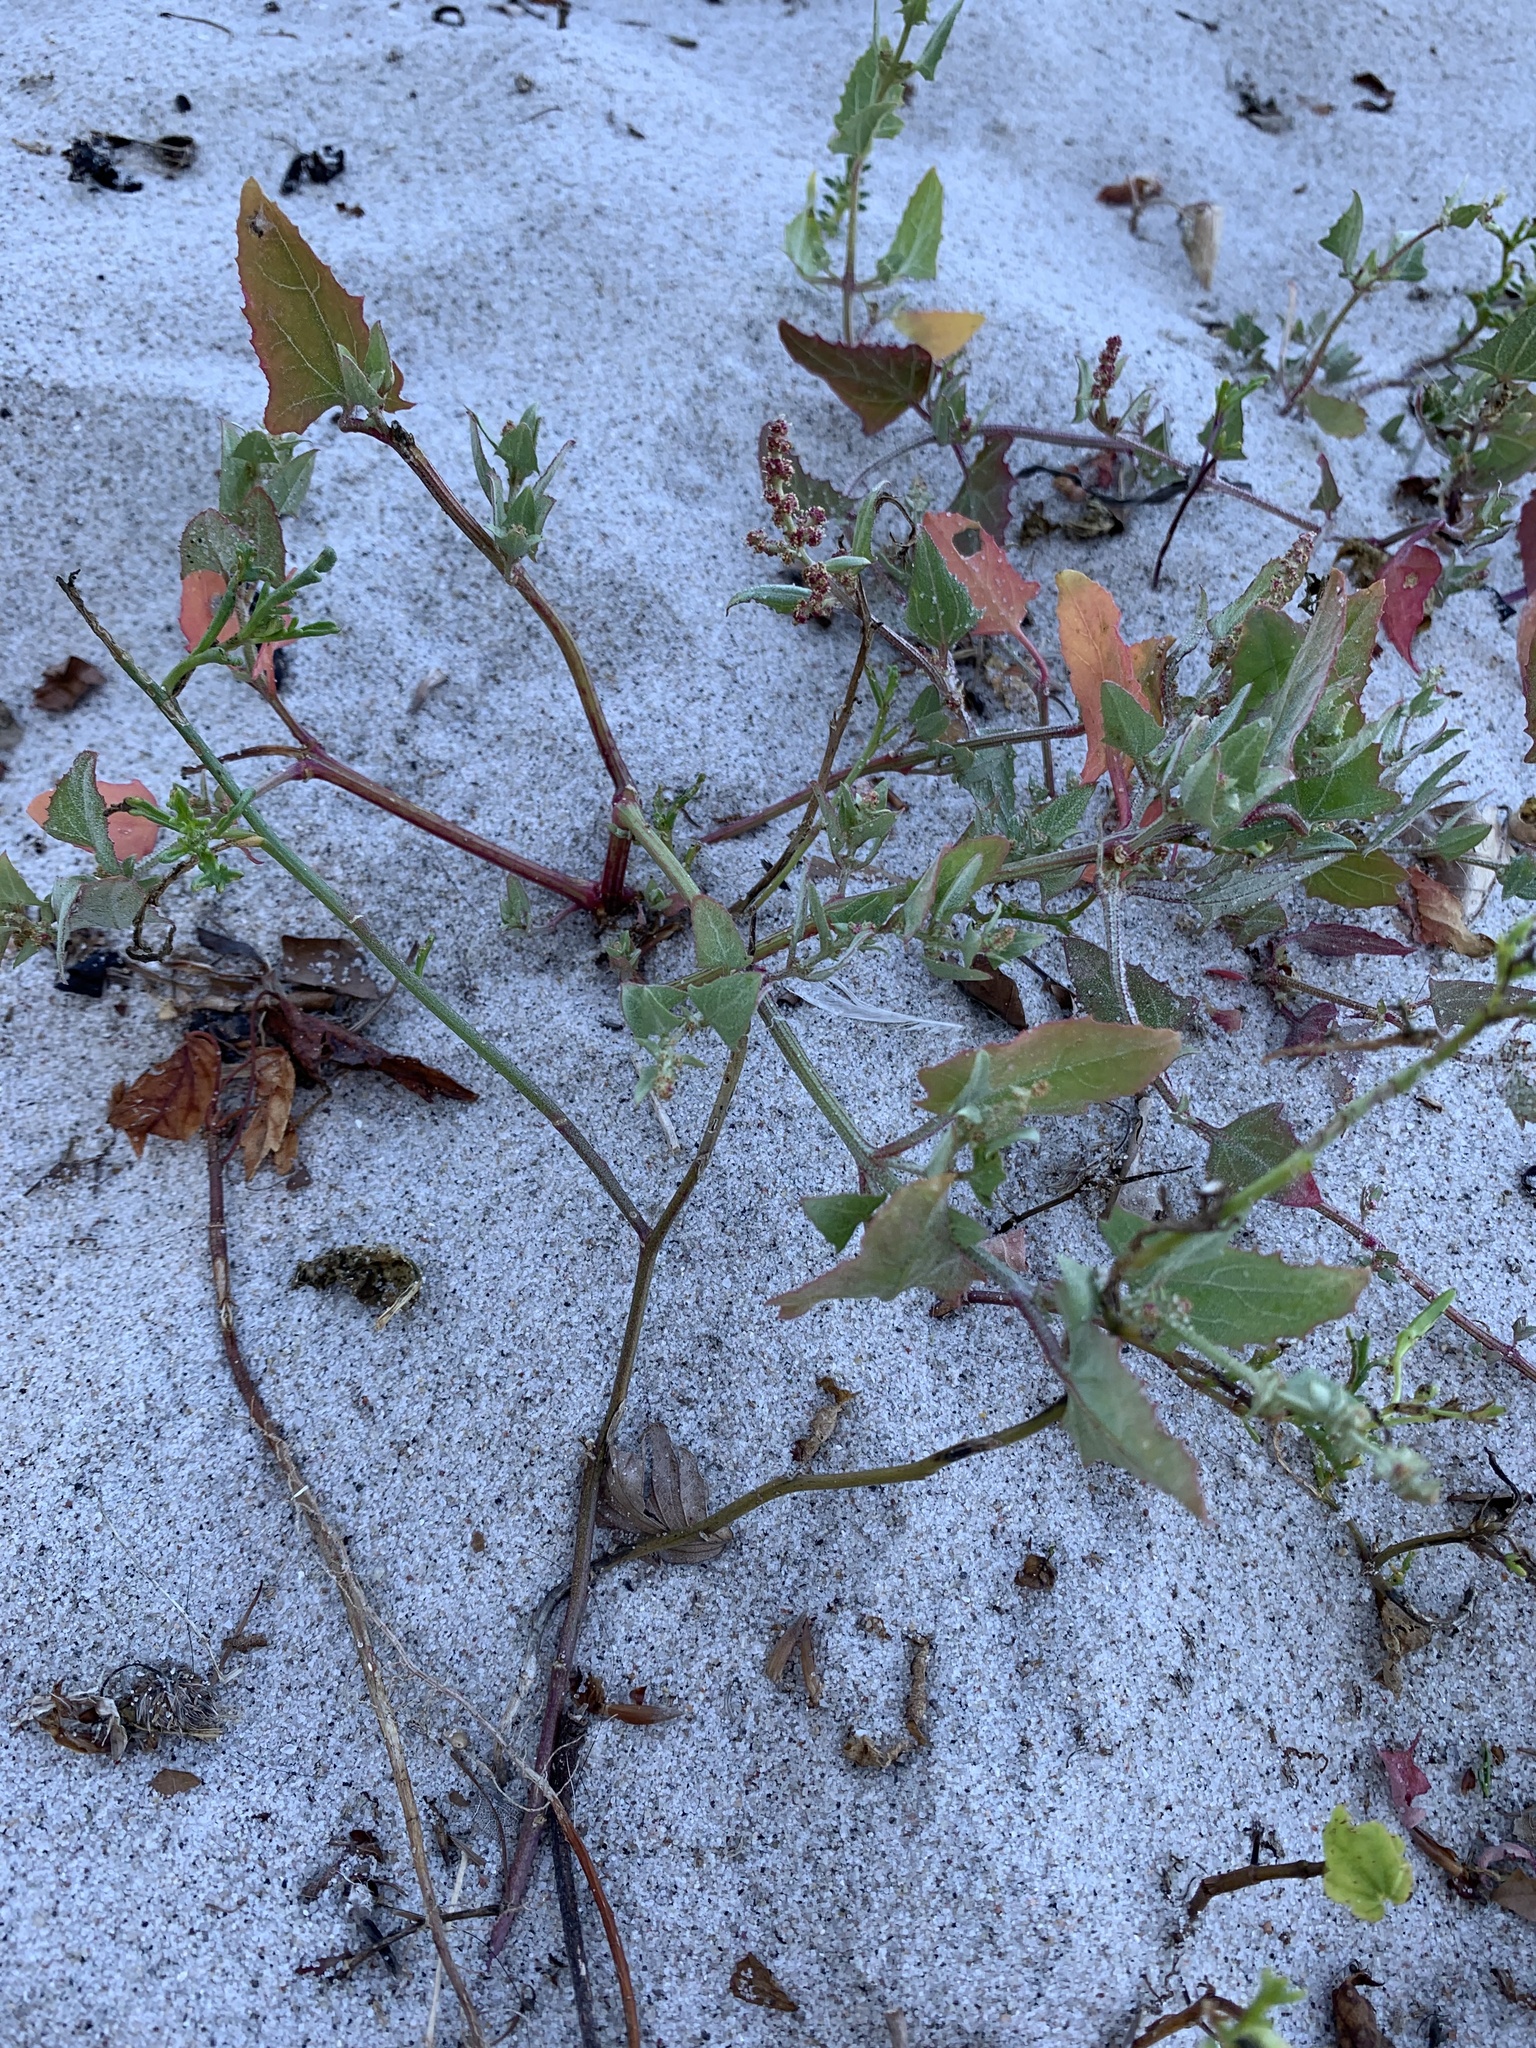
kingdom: Plantae
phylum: Tracheophyta
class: Magnoliopsida
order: Caryophyllales
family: Amaranthaceae
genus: Atriplex
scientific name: Atriplex prostrata
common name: Spear-leaved orache
